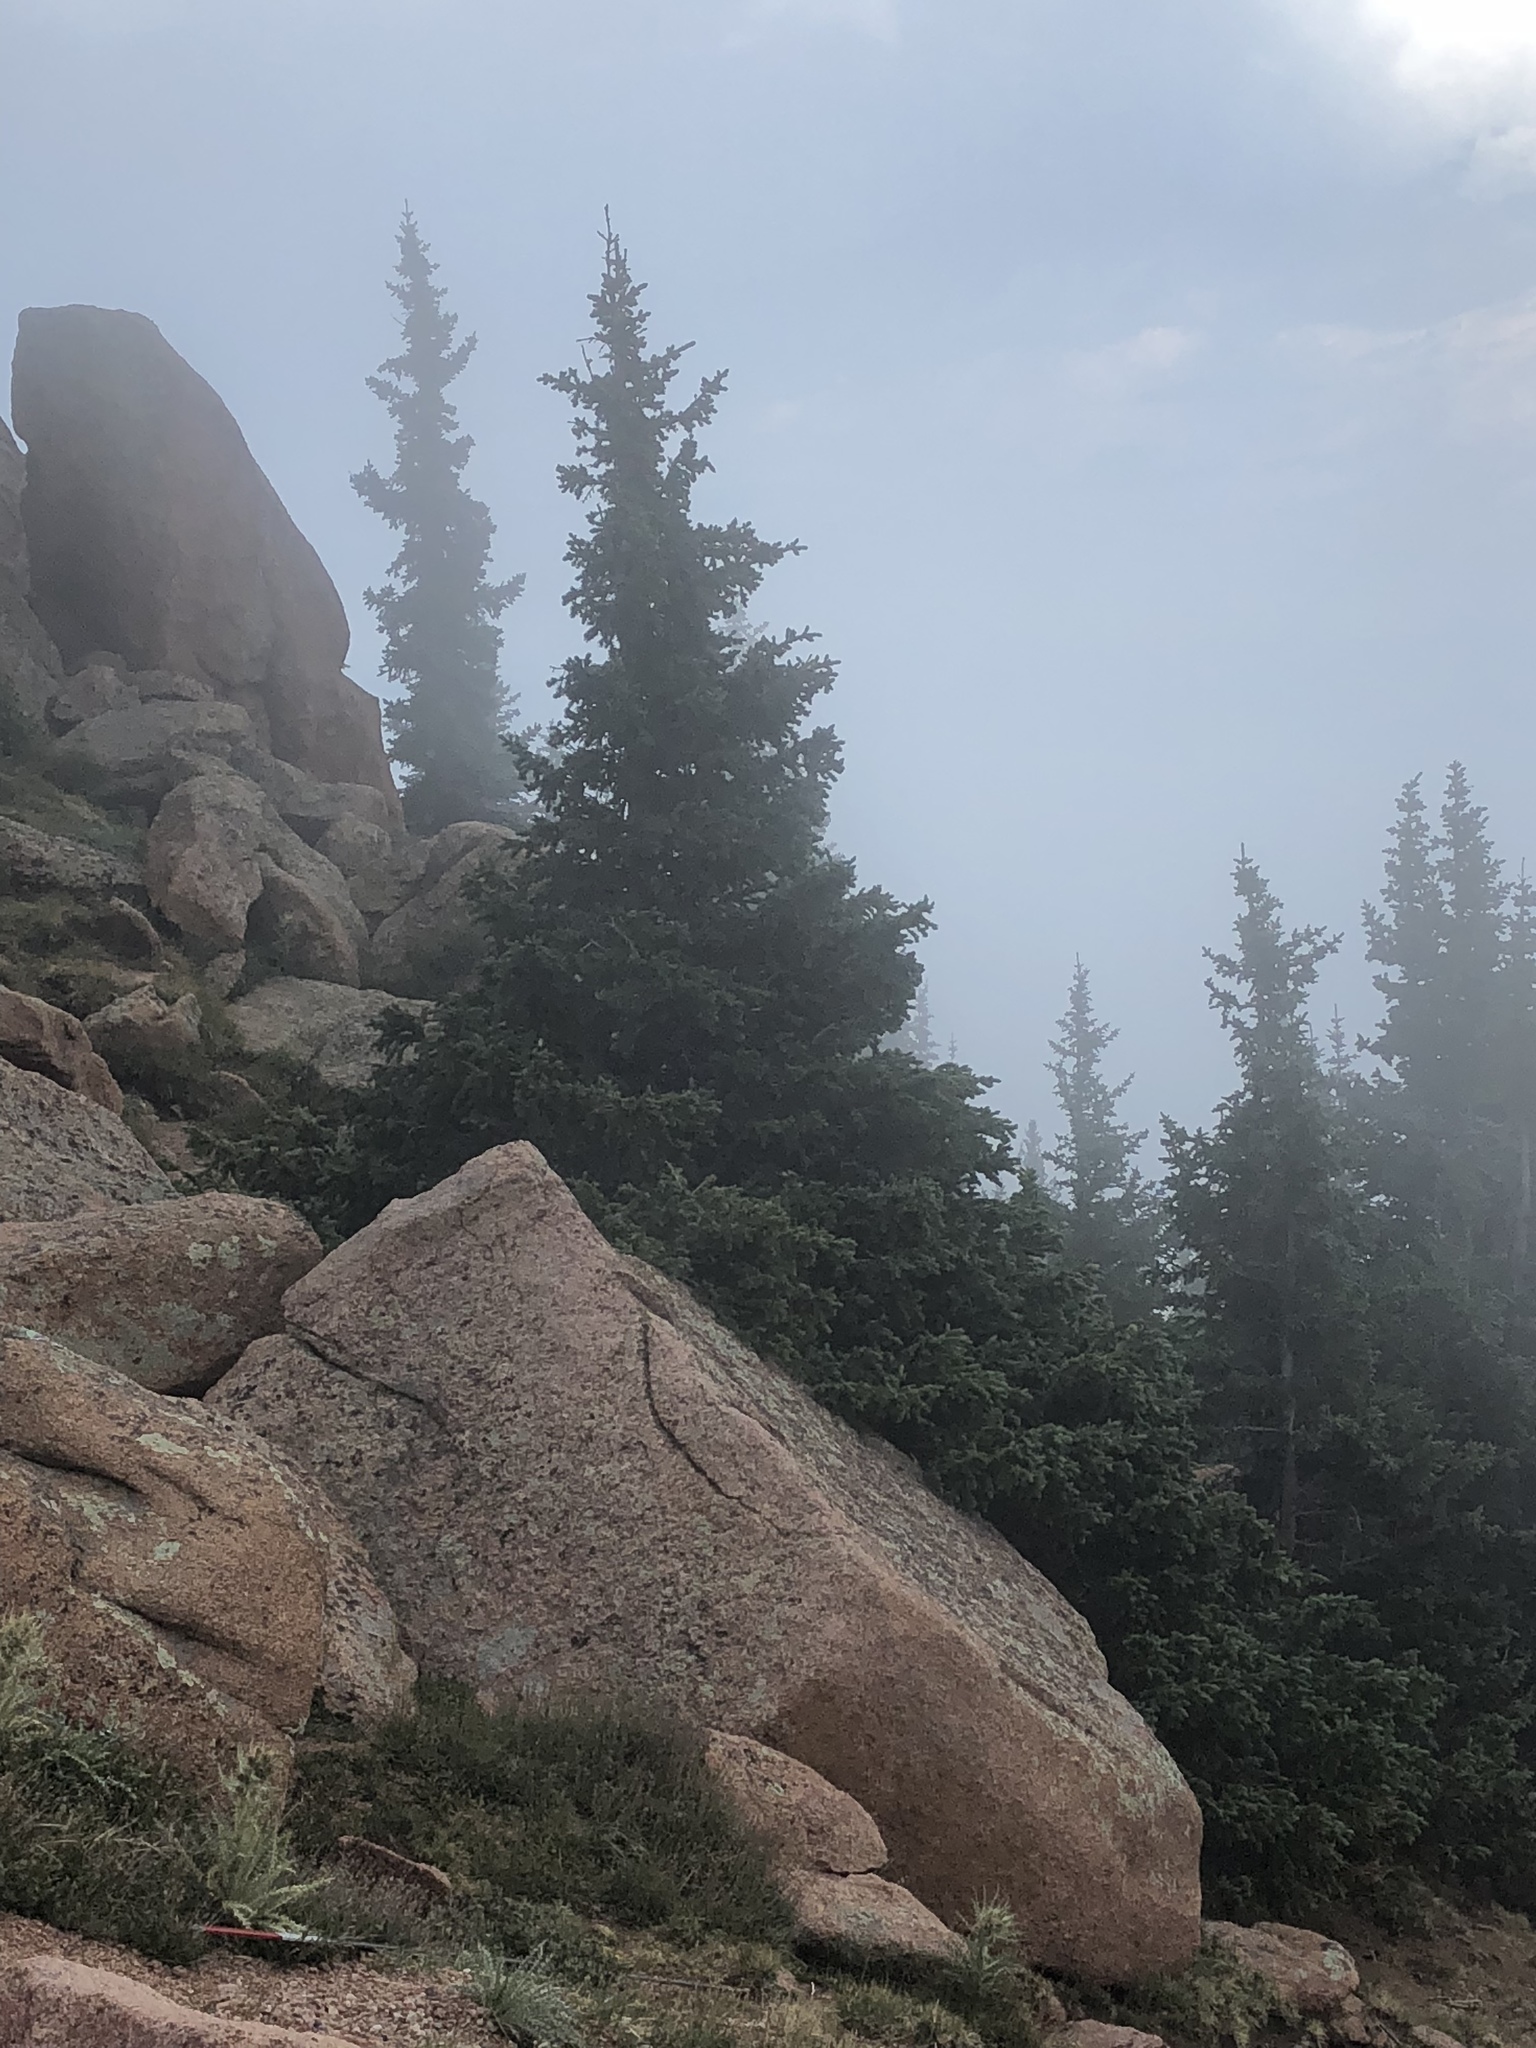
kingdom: Plantae
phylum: Tracheophyta
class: Pinopsida
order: Pinales
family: Pinaceae
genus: Picea
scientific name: Picea engelmannii
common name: Engelmann spruce
